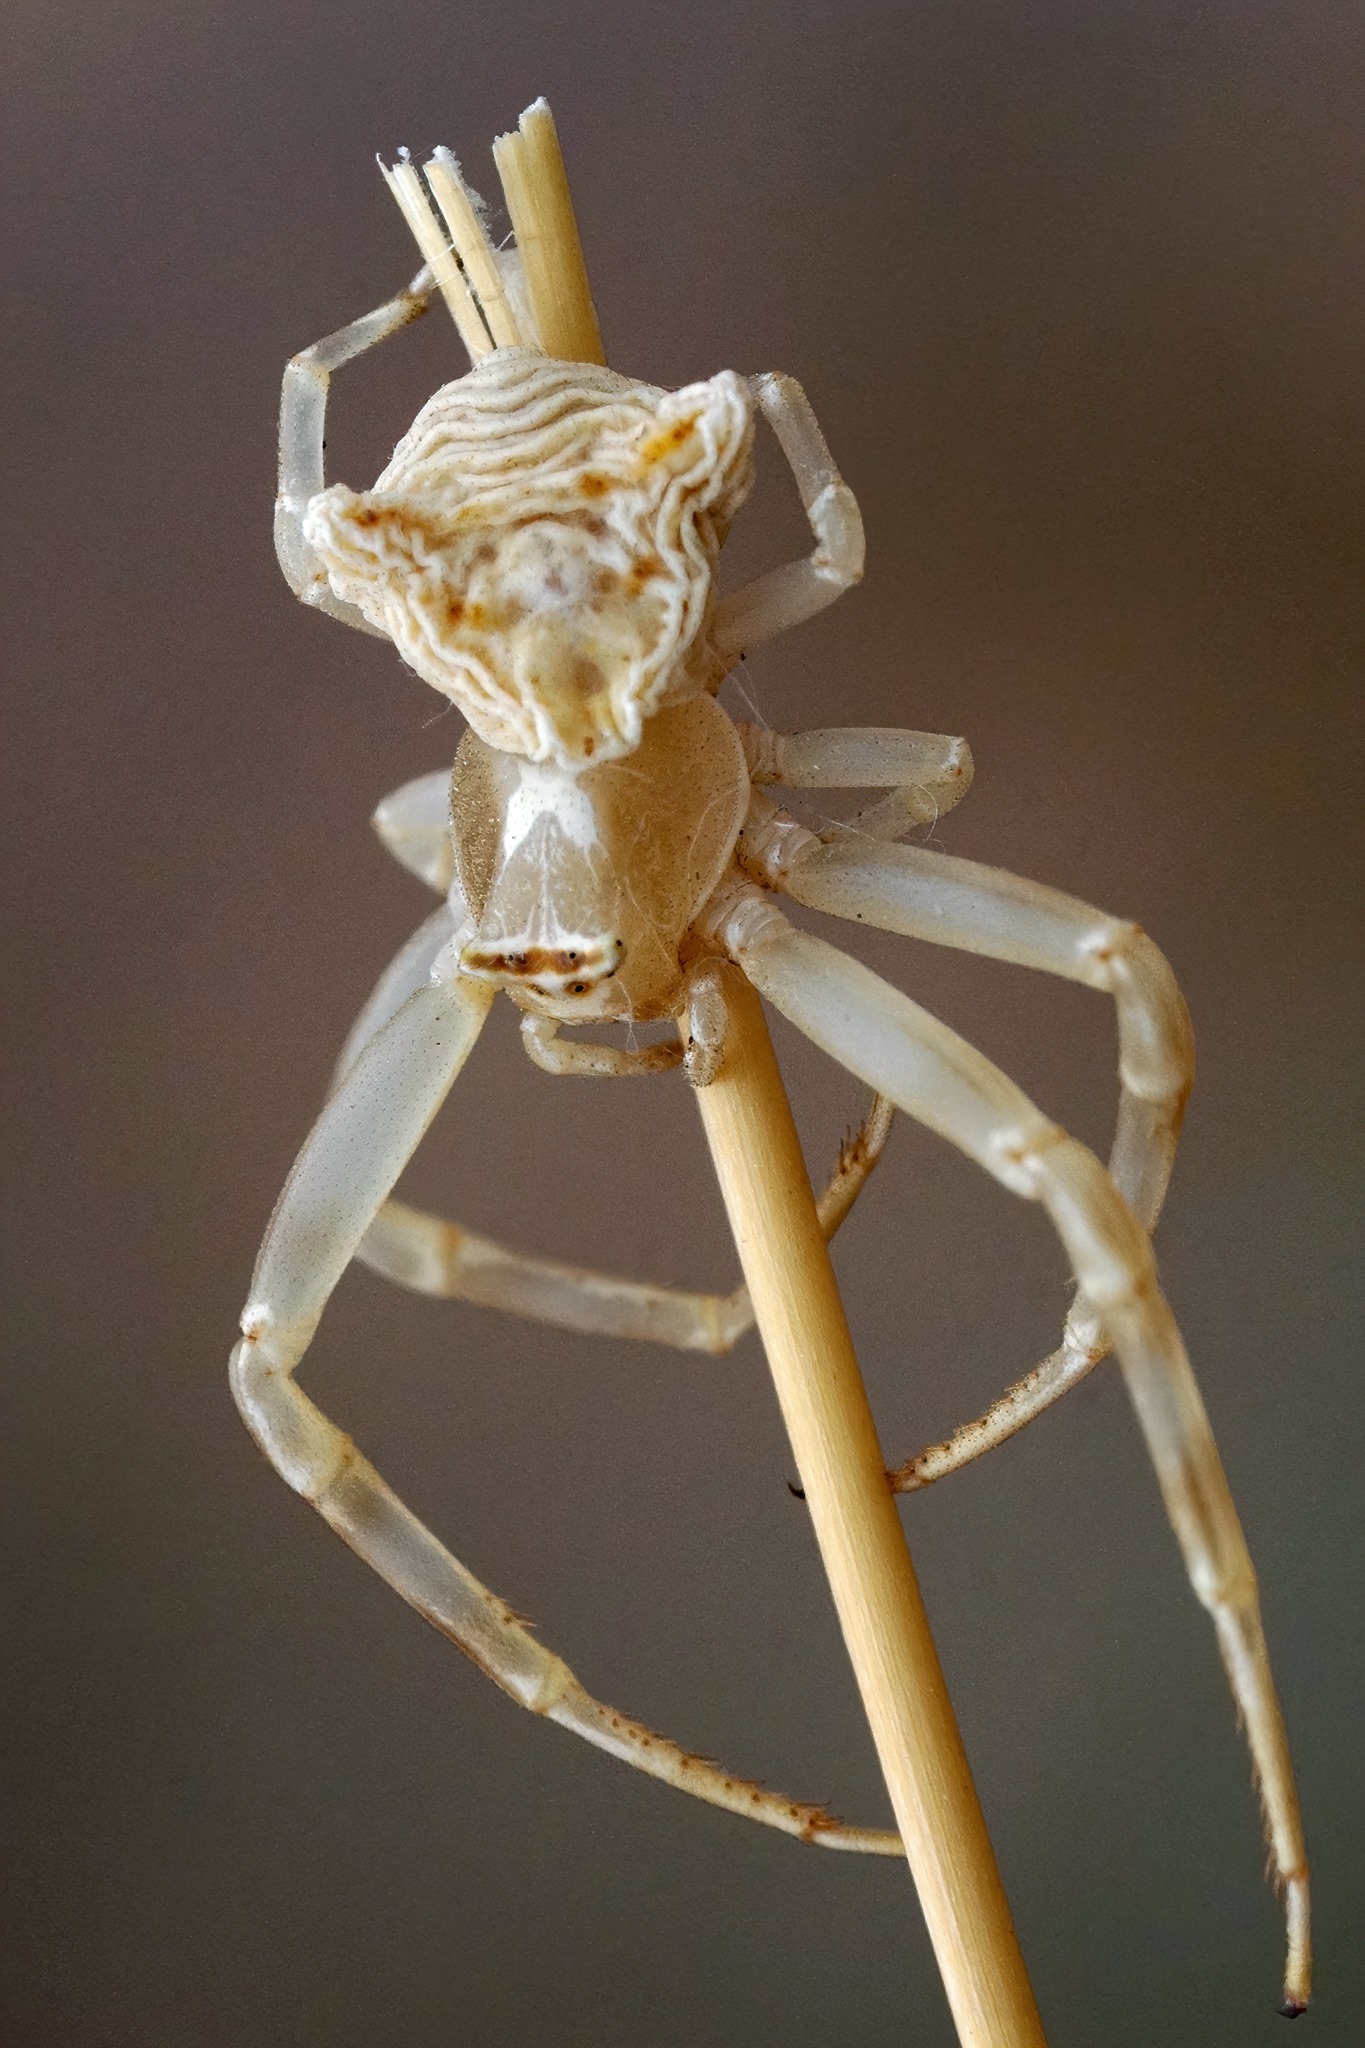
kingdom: Animalia
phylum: Arthropoda
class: Arachnida
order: Araneae
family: Thomisidae
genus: Thomisus
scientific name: Thomisus onustus
